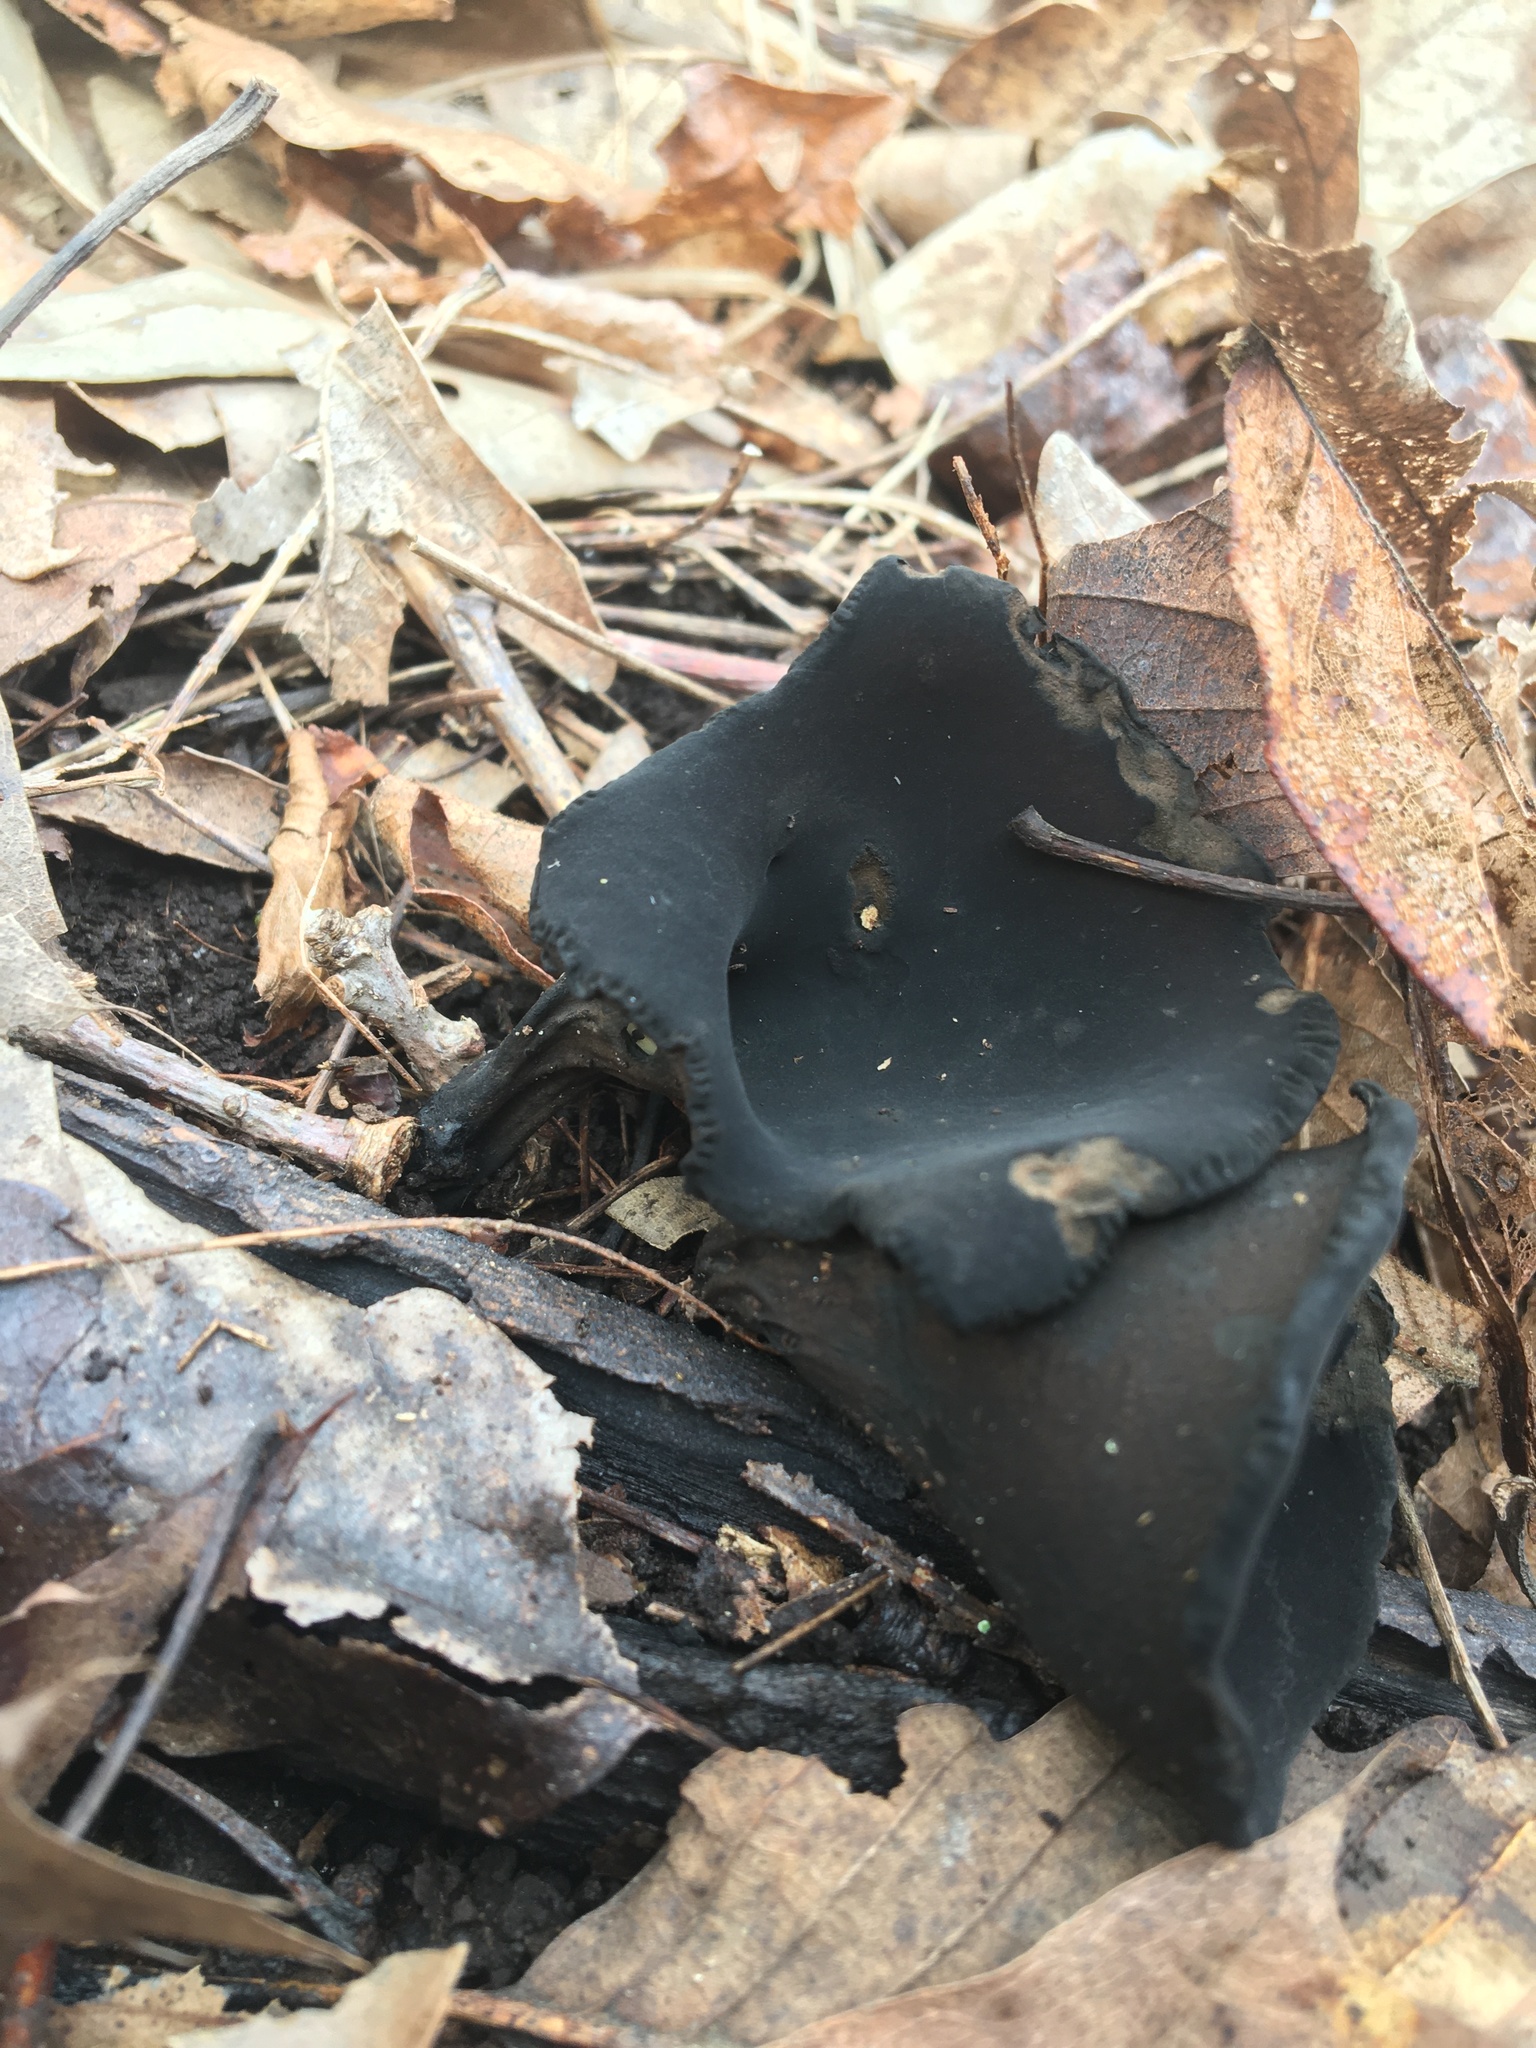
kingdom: Fungi
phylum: Ascomycota
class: Pezizomycetes
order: Pezizales
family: Sarcosomataceae
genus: Urnula
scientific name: Urnula craterium
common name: Devil's urn
